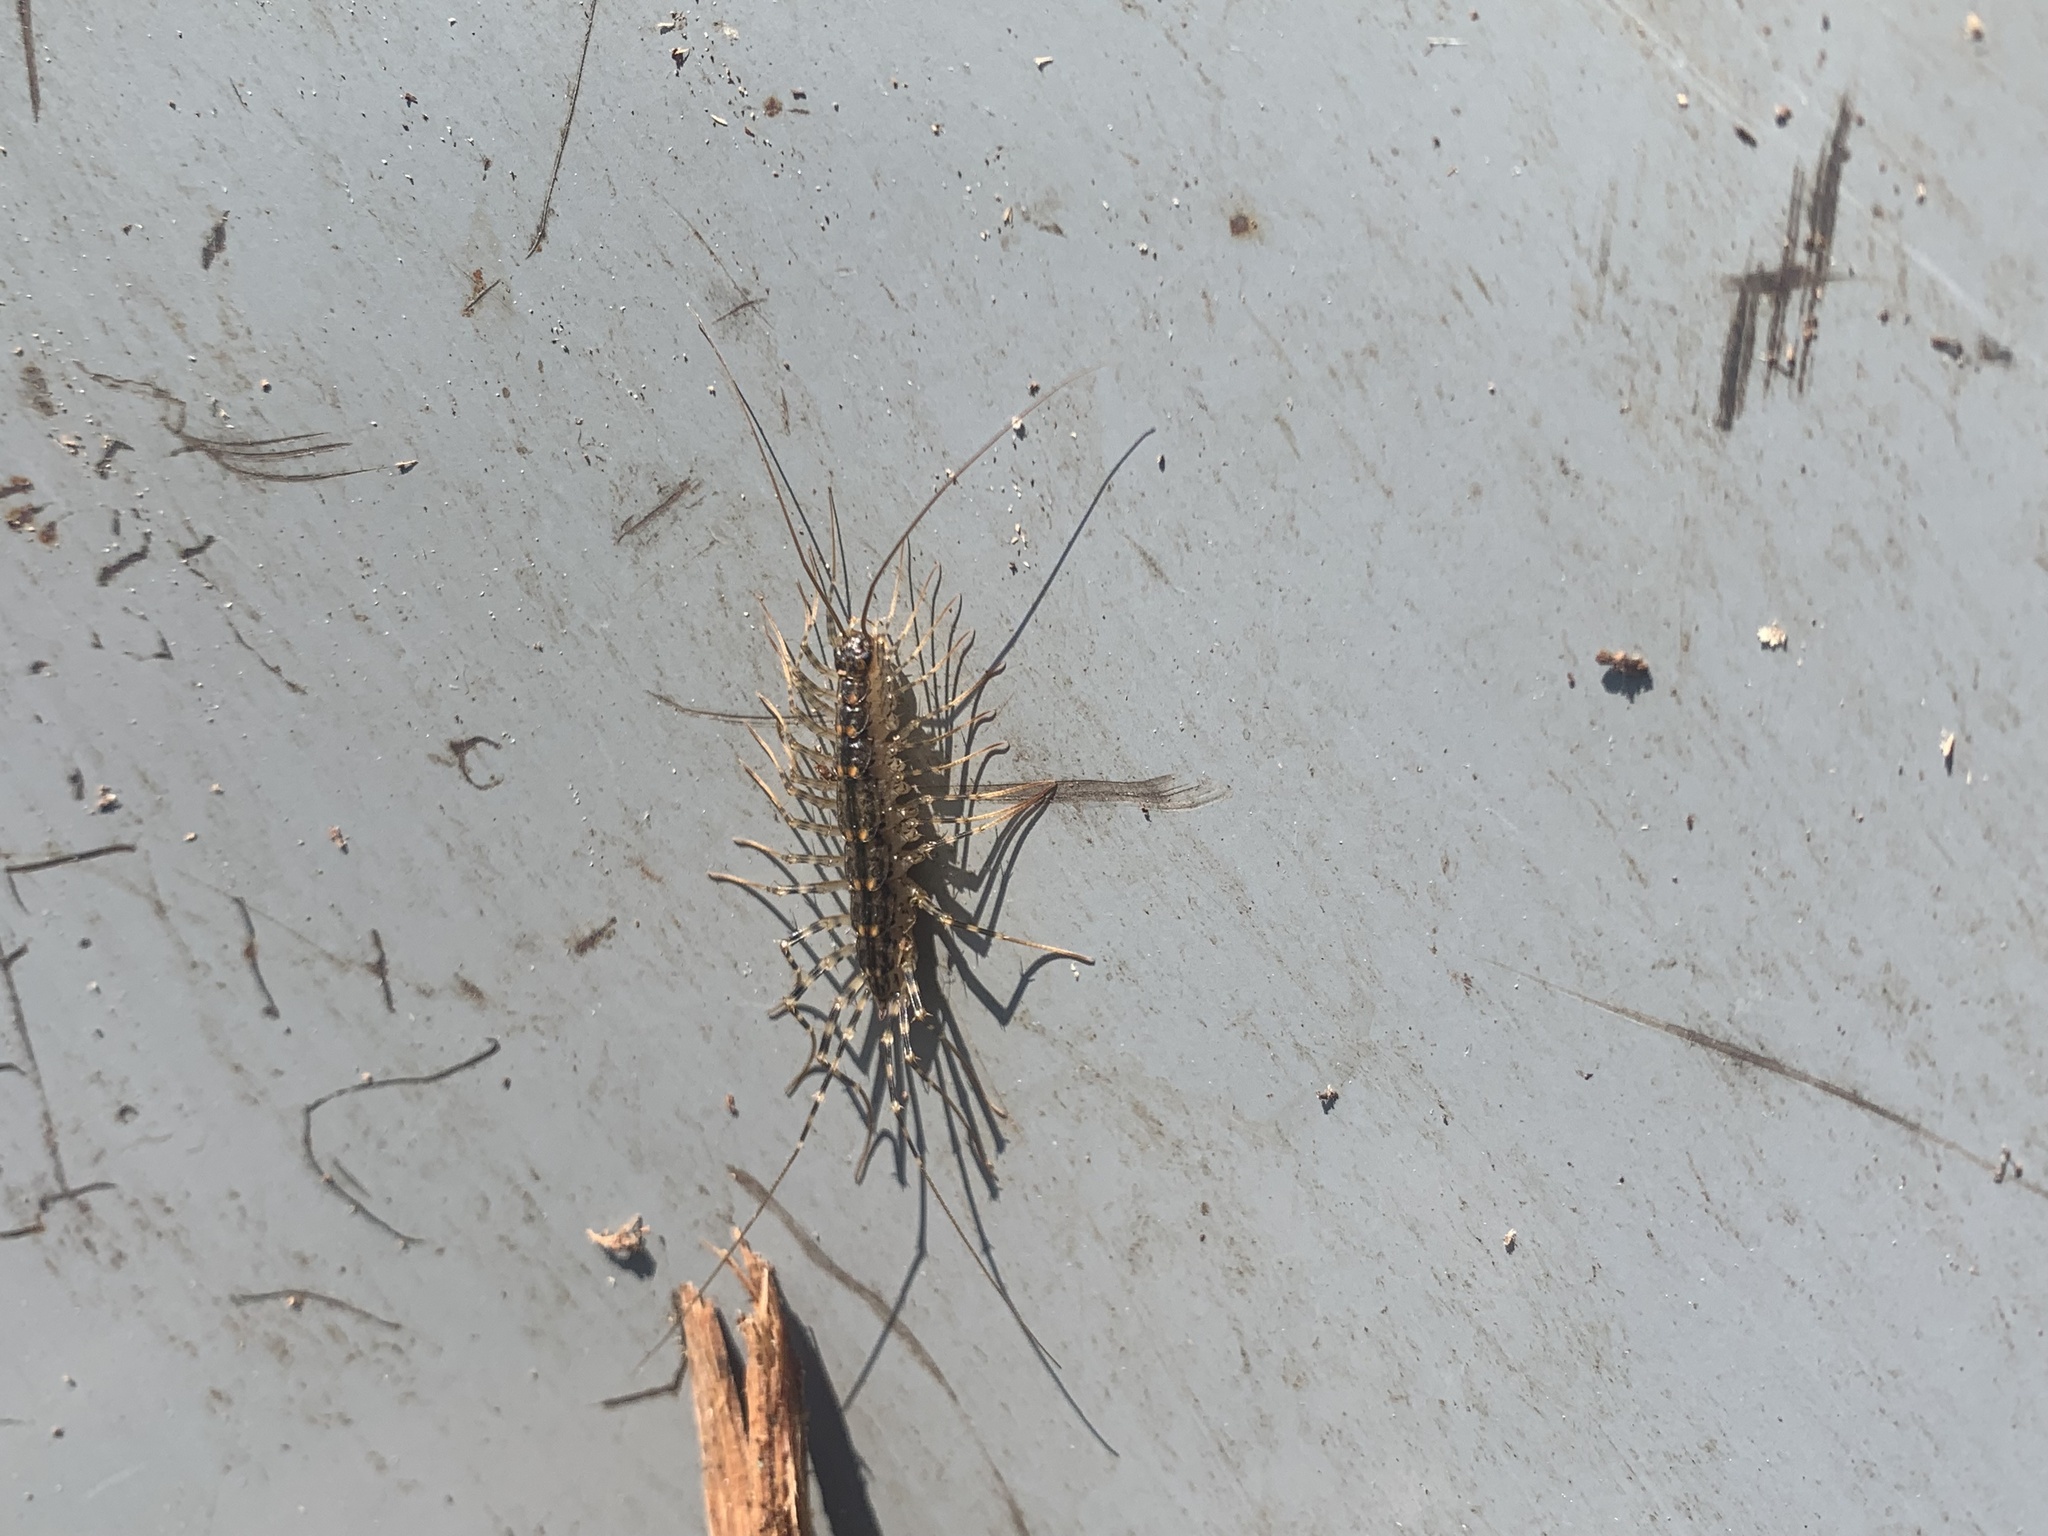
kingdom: Animalia
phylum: Arthropoda
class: Chilopoda
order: Scutigeromorpha
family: Scutigeridae
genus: Thereuonema
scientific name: Thereuonema tuberculata
